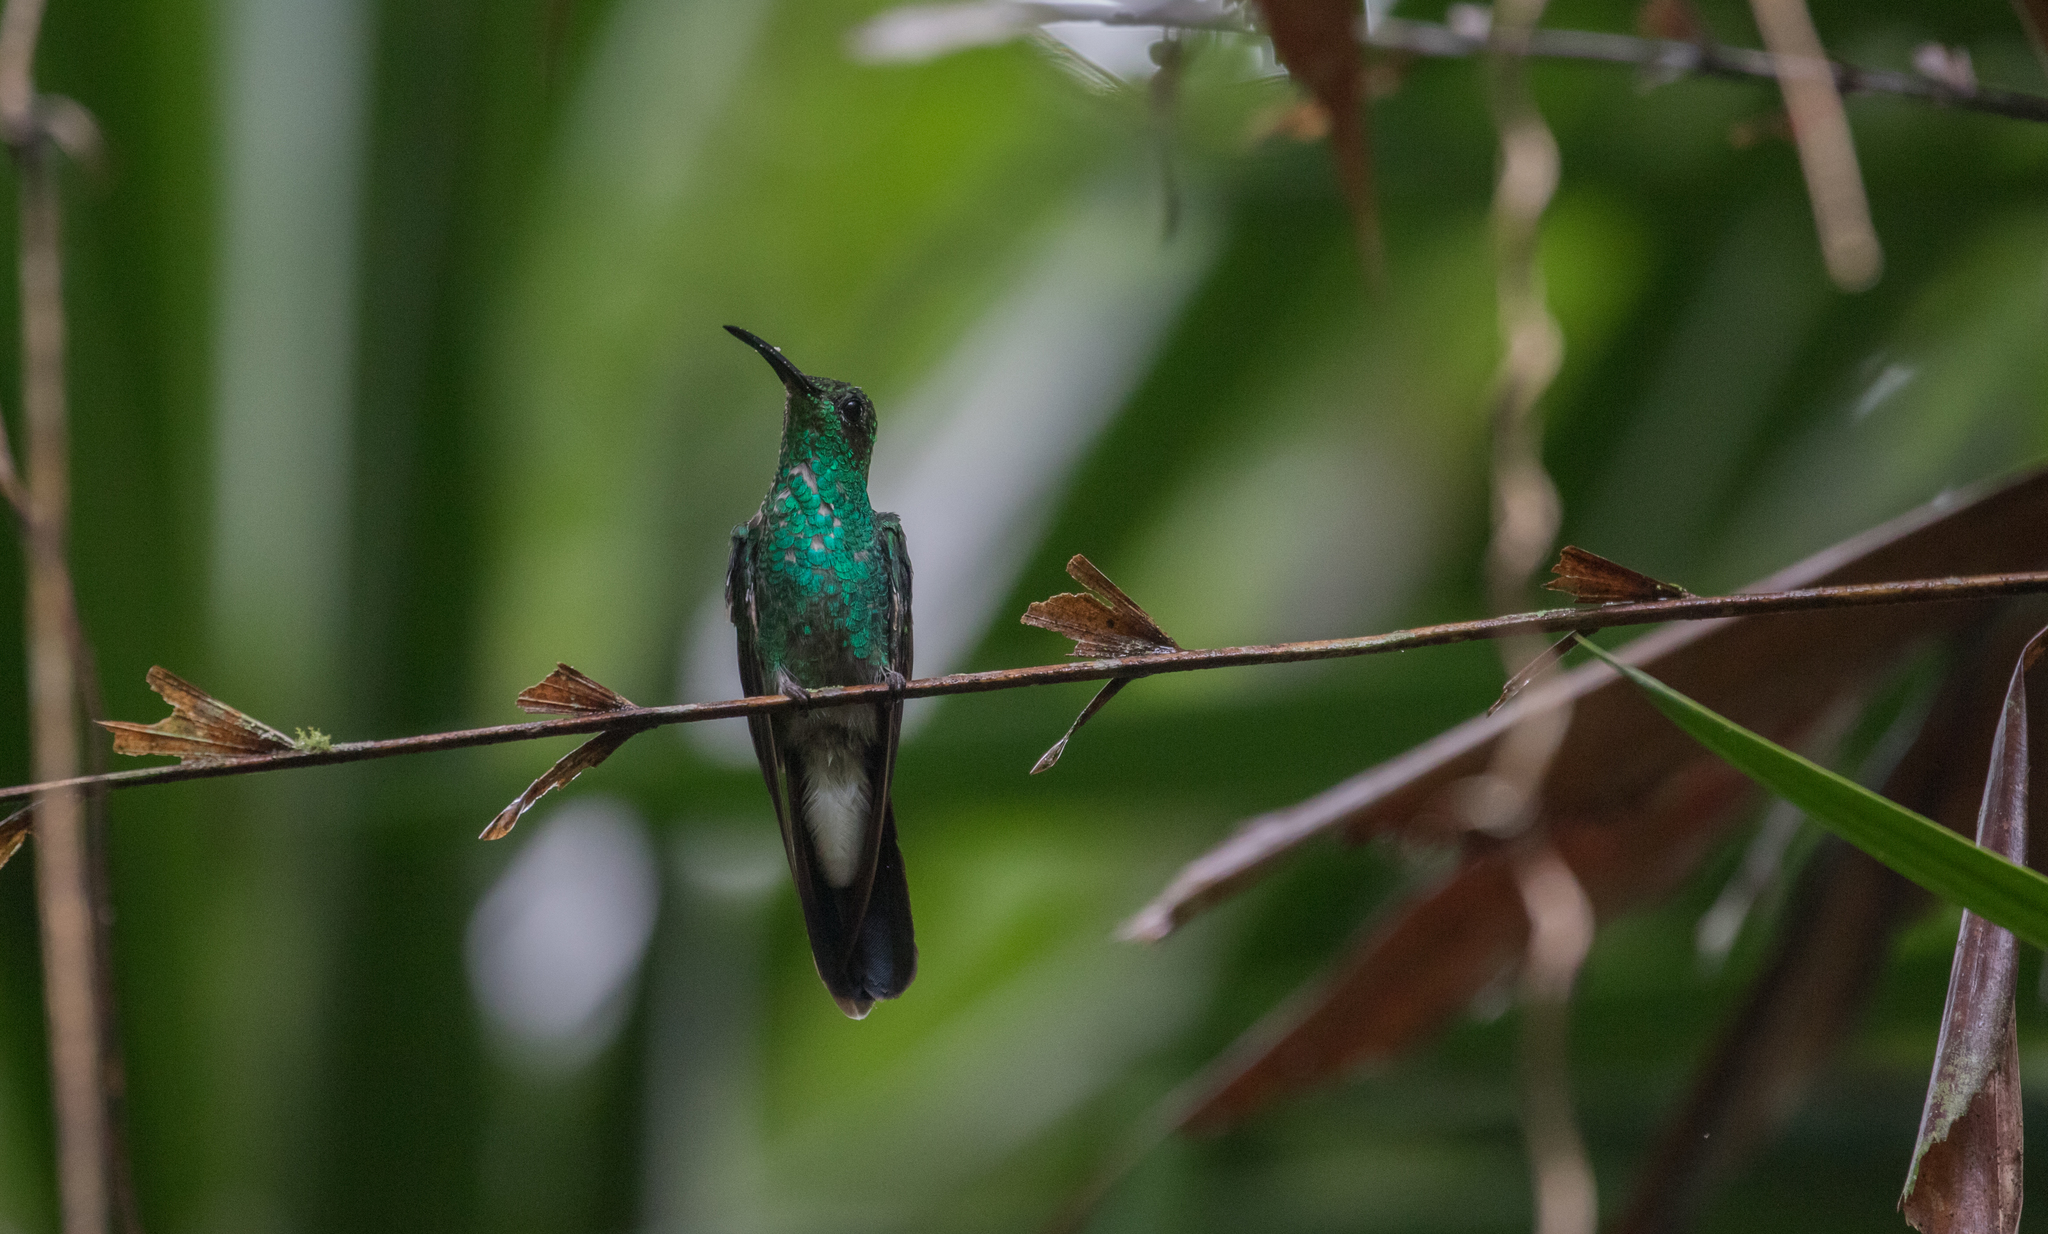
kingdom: Animalia
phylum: Chordata
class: Aves
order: Apodiformes
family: Trochilidae
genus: Chalybura
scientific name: Chalybura buffonii
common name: White-vented plumeleteer
